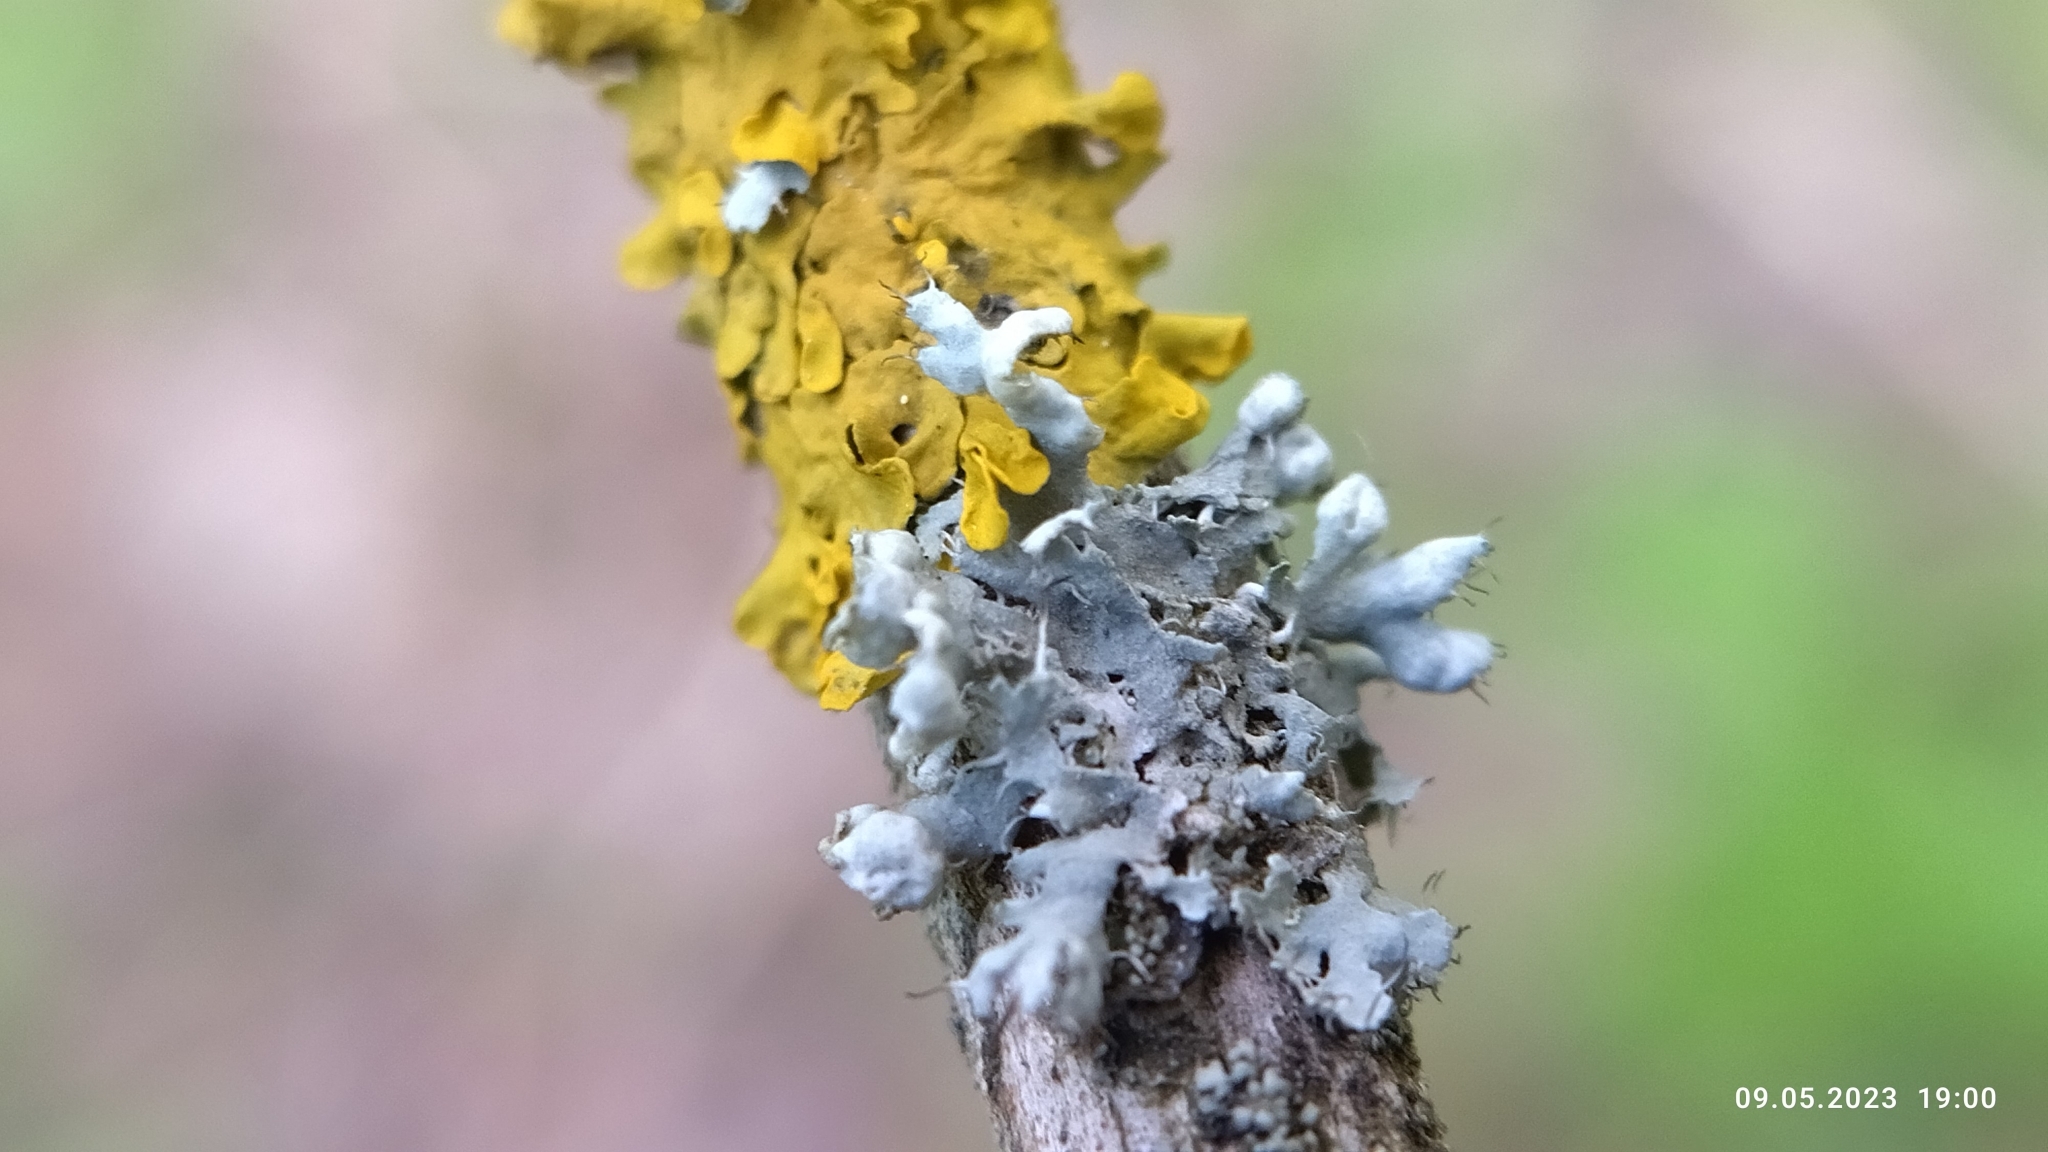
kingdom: Fungi
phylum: Ascomycota
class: Lecanoromycetes
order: Caliciales
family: Physciaceae
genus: Physcia
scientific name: Physcia adscendens
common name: Hooded rosette lichen
